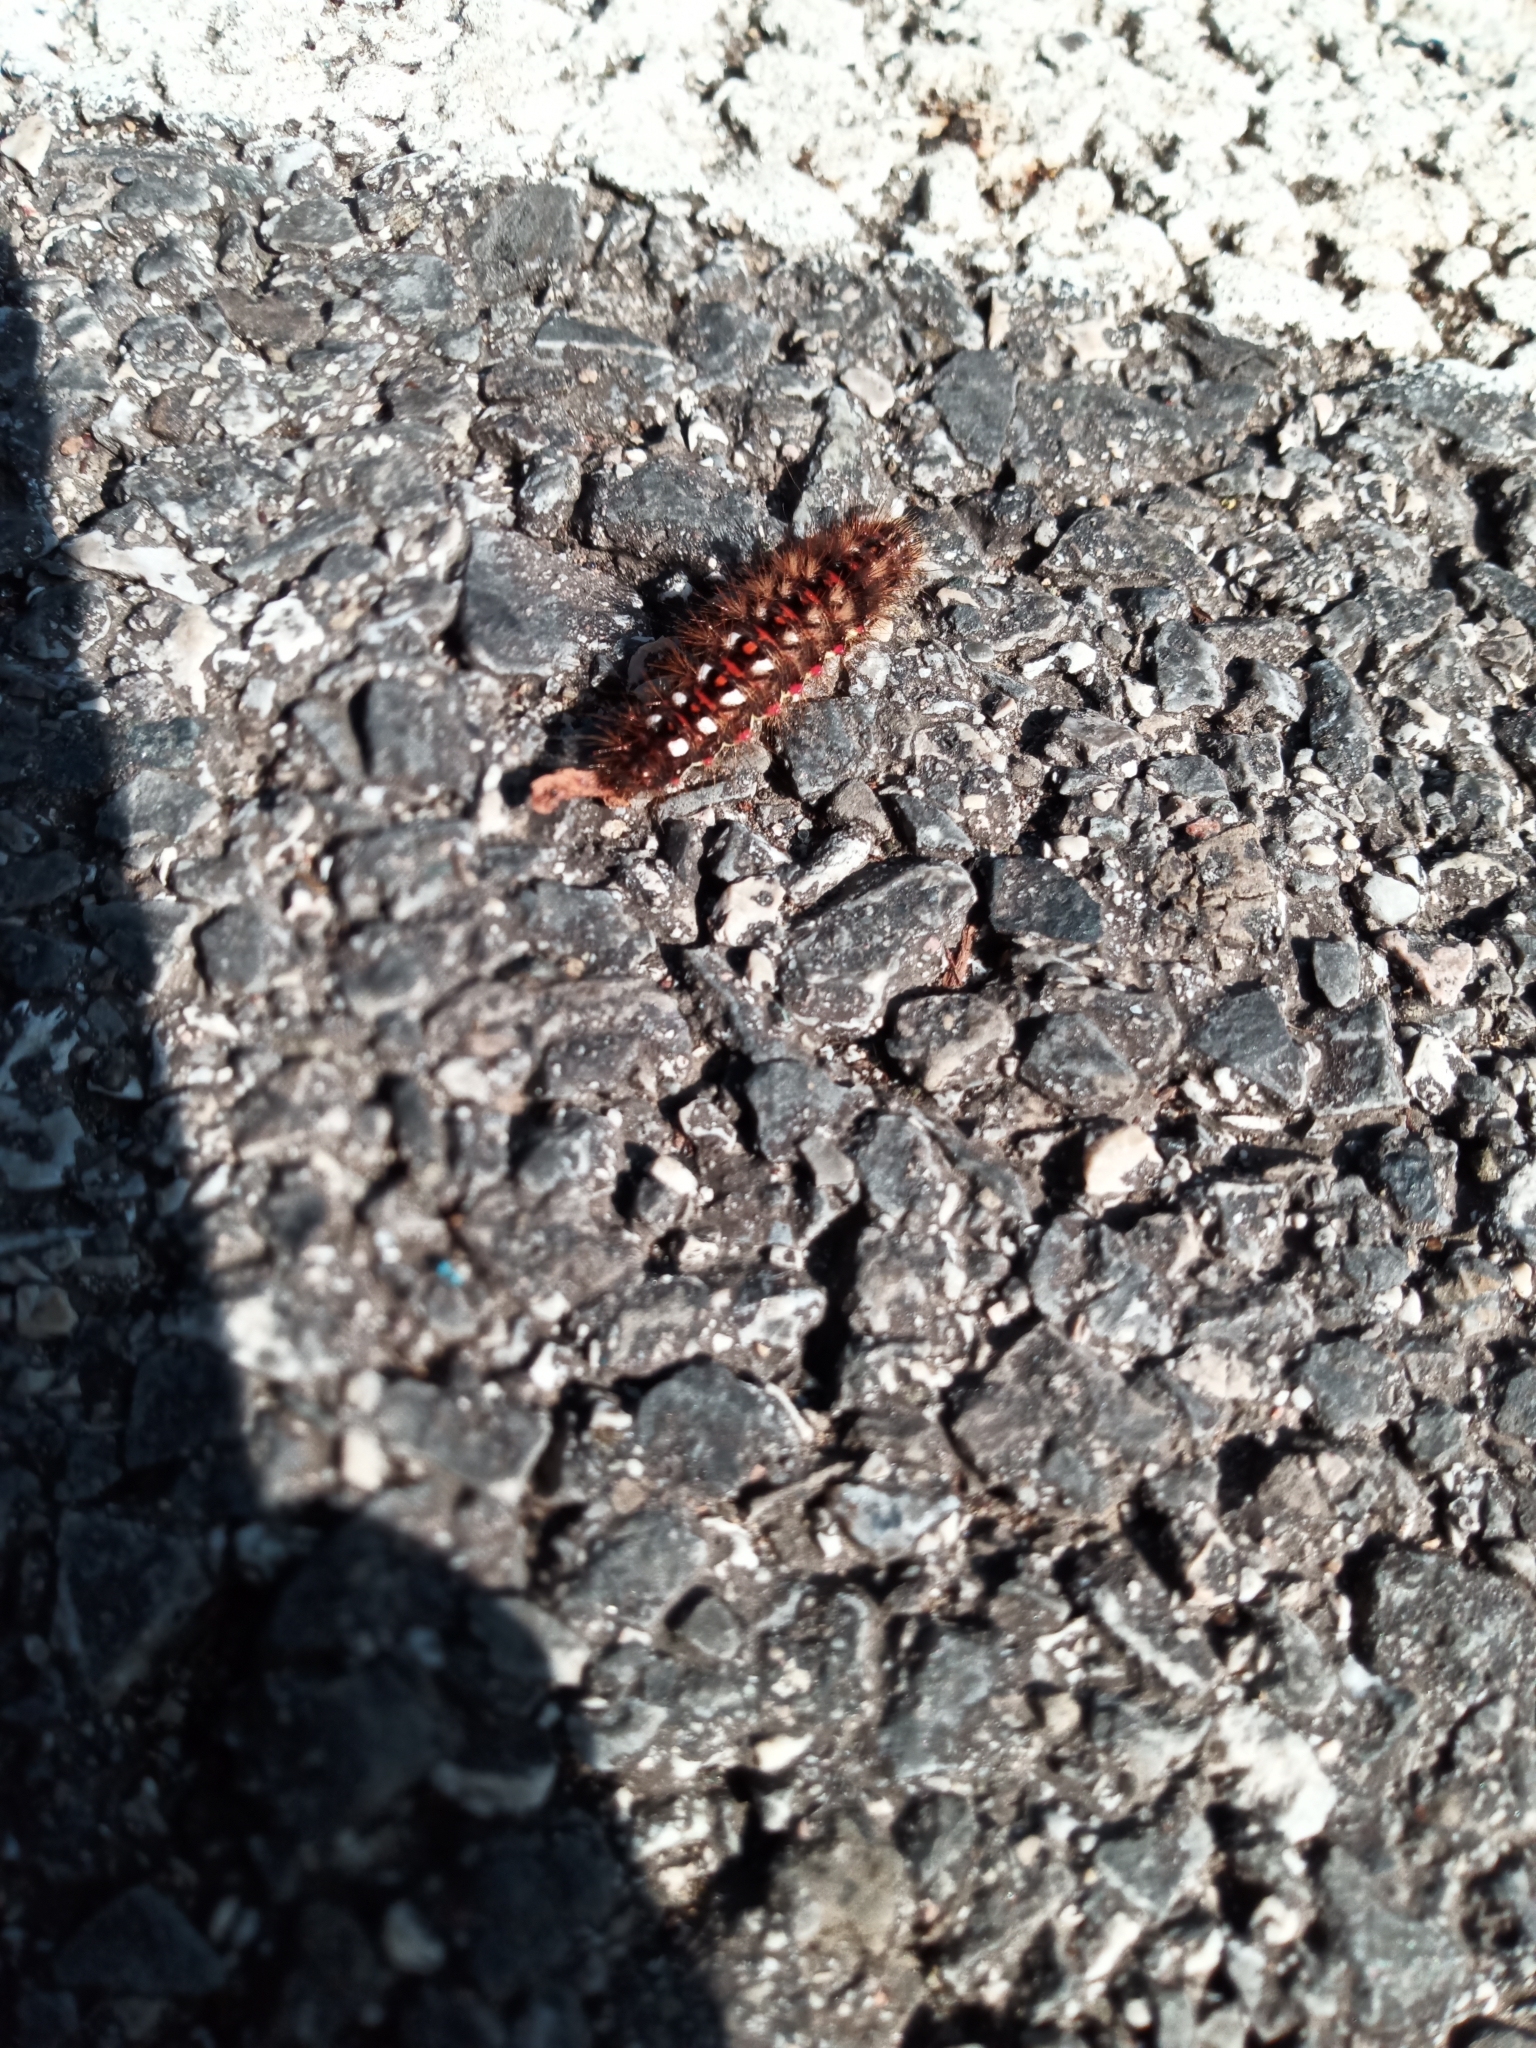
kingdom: Animalia
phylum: Arthropoda
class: Insecta
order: Lepidoptera
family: Noctuidae
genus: Acronicta
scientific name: Acronicta rumicis
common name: Knot grass
